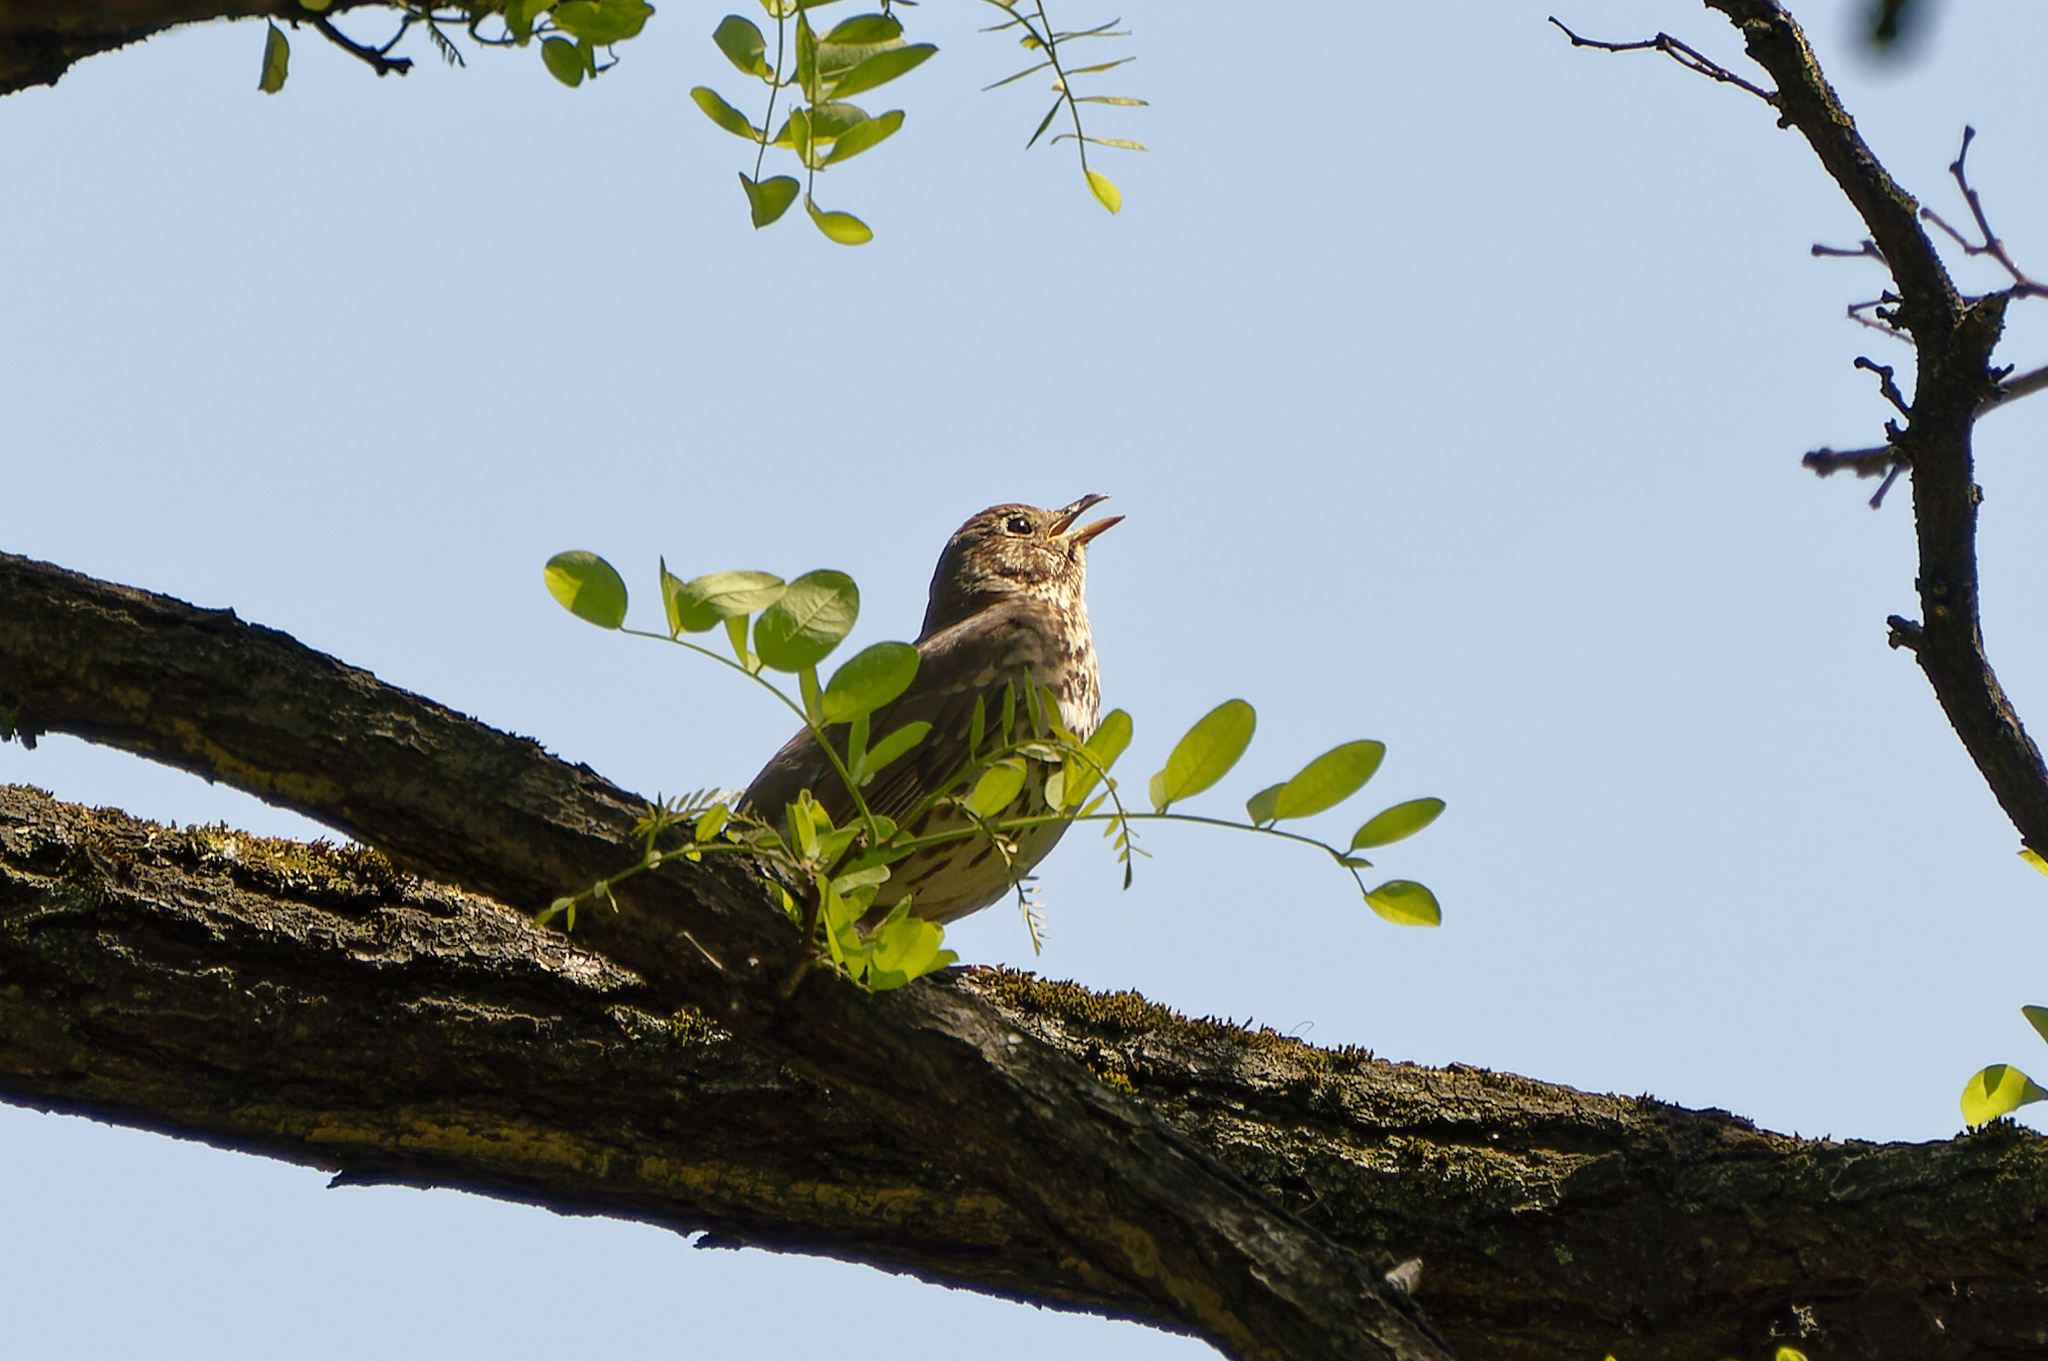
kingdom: Animalia
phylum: Chordata
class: Aves
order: Passeriformes
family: Turdidae
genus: Turdus
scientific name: Turdus philomelos
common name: Song thrush
